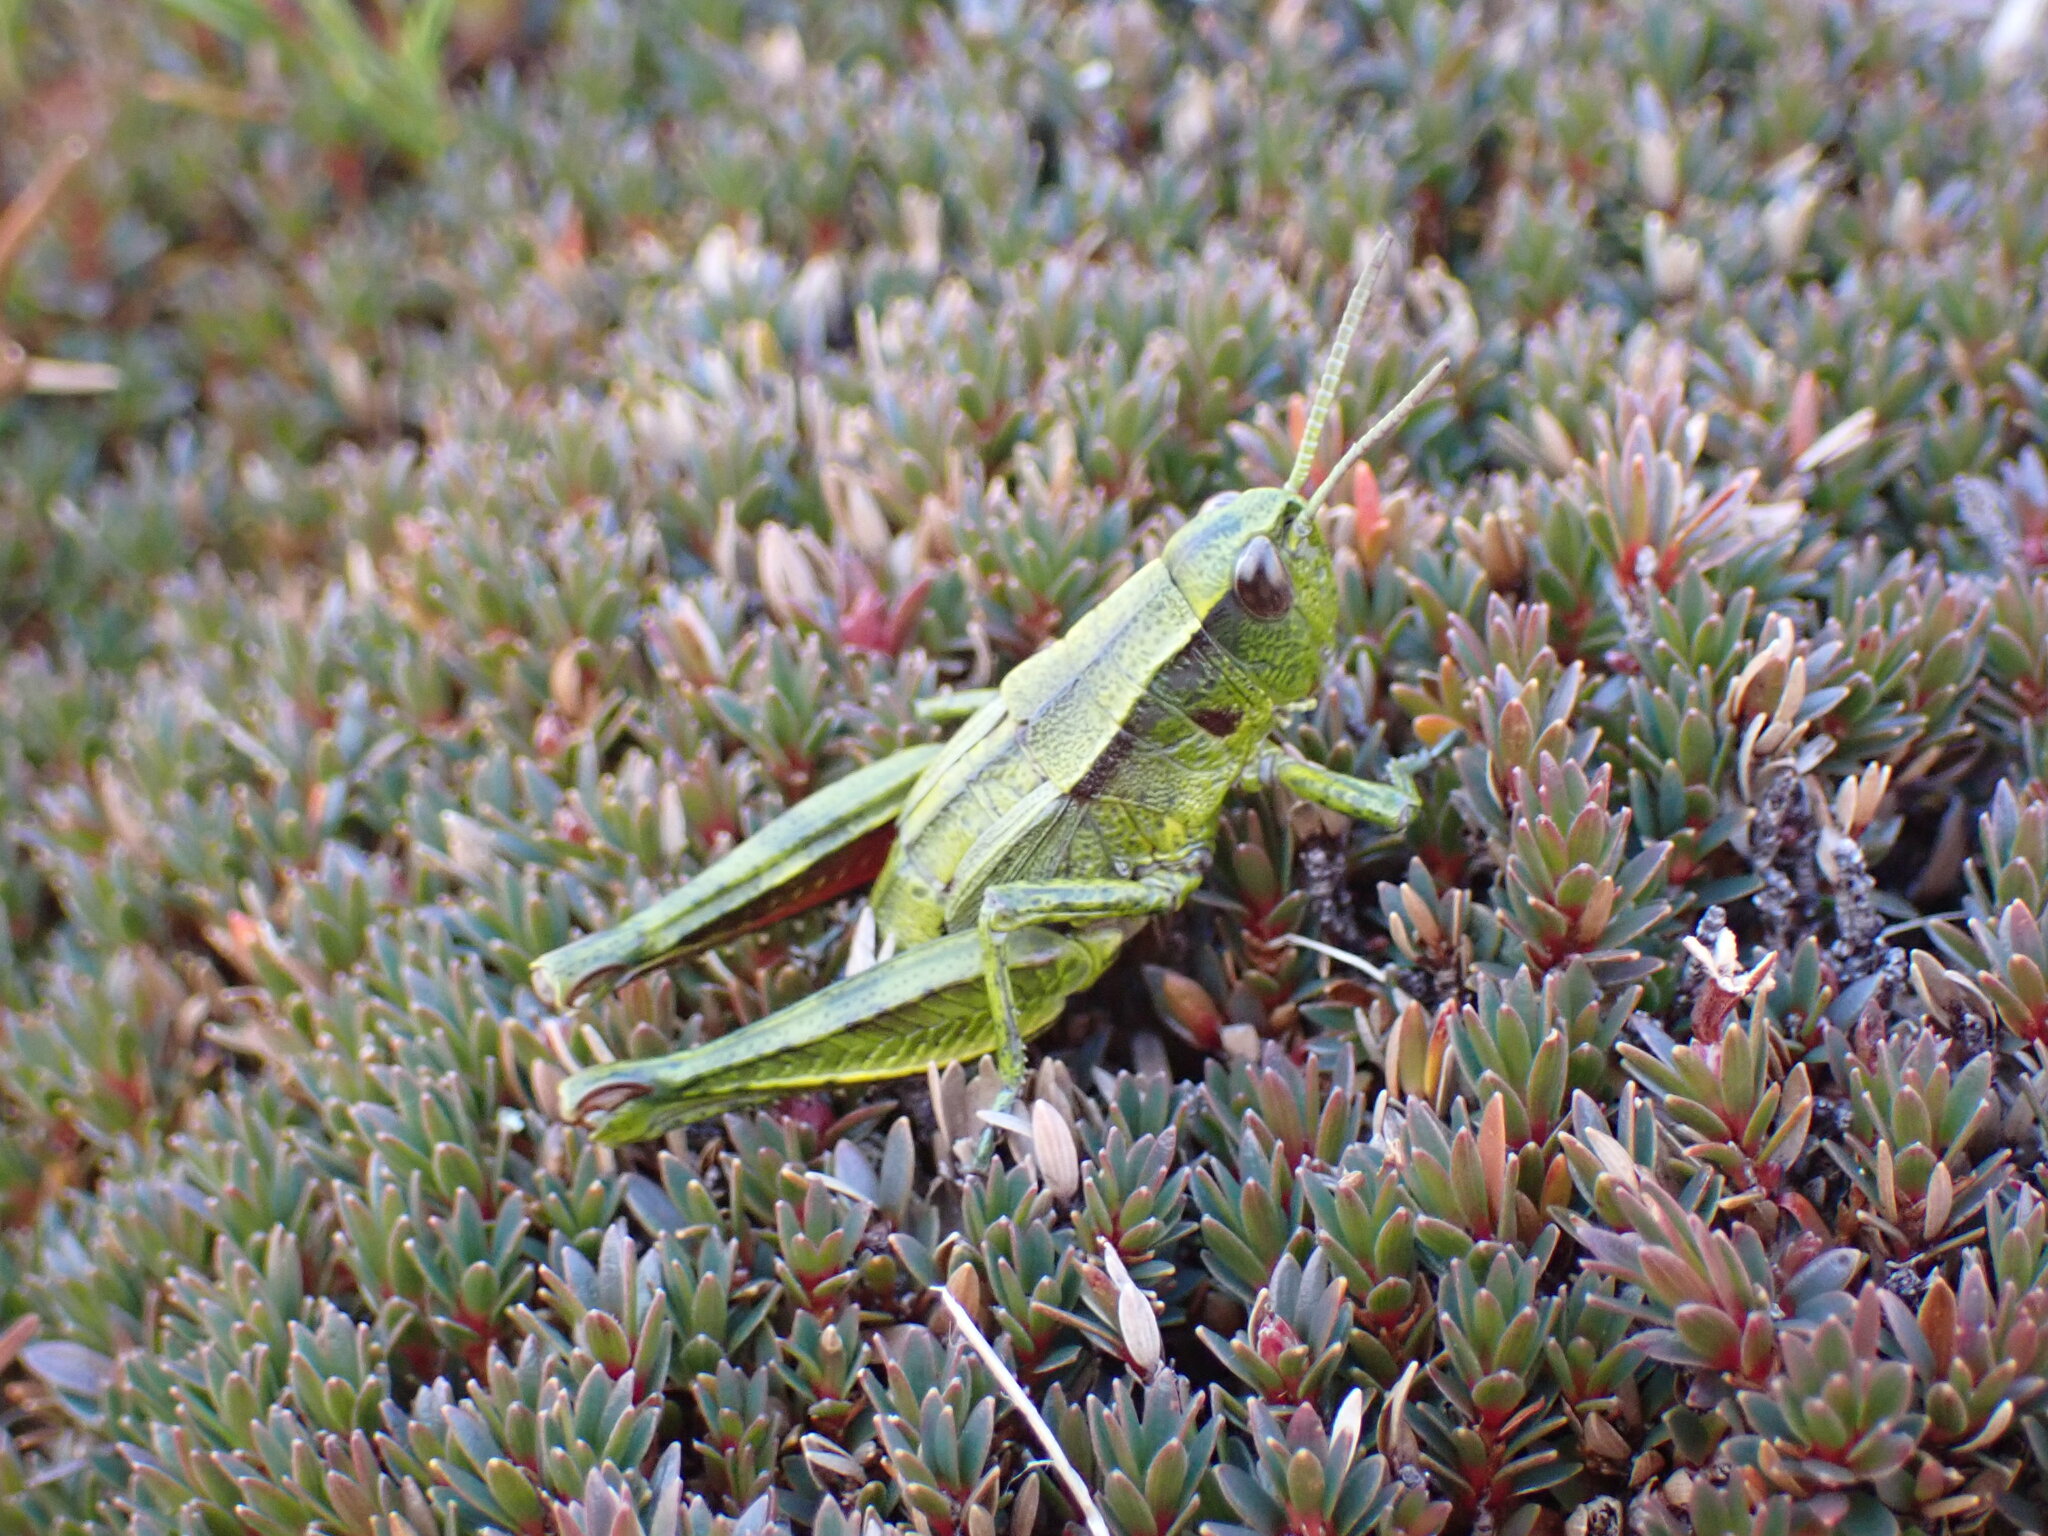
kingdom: Animalia
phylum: Arthropoda
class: Insecta
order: Orthoptera
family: Acrididae
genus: Sigaus
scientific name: Sigaus piliferus
